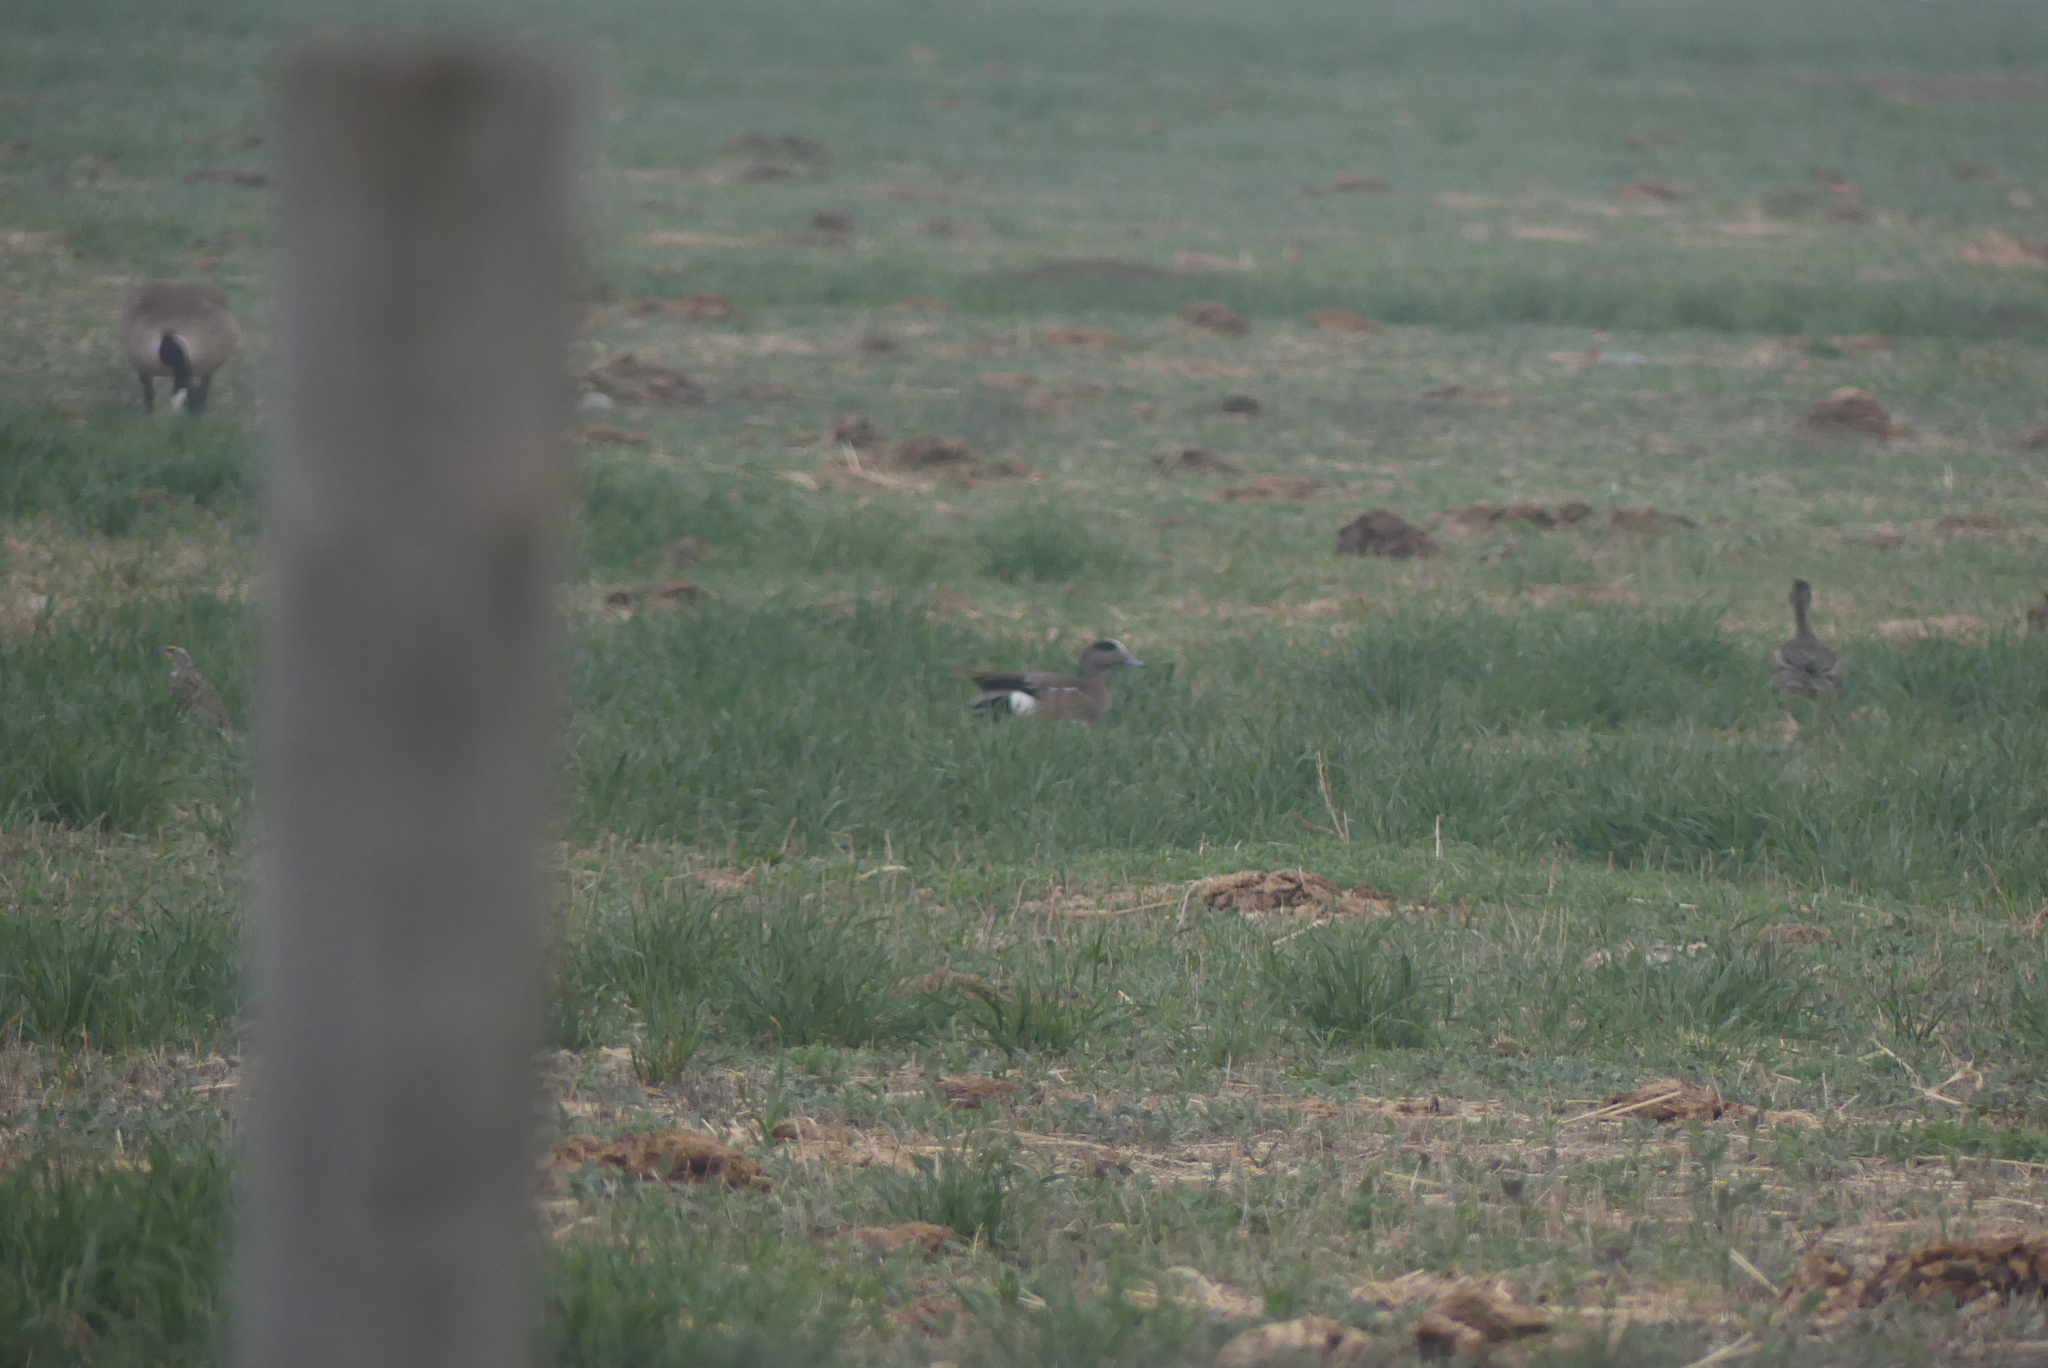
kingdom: Animalia
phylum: Chordata
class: Aves
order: Anseriformes
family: Anatidae
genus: Mareca
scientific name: Mareca americana
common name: American wigeon
